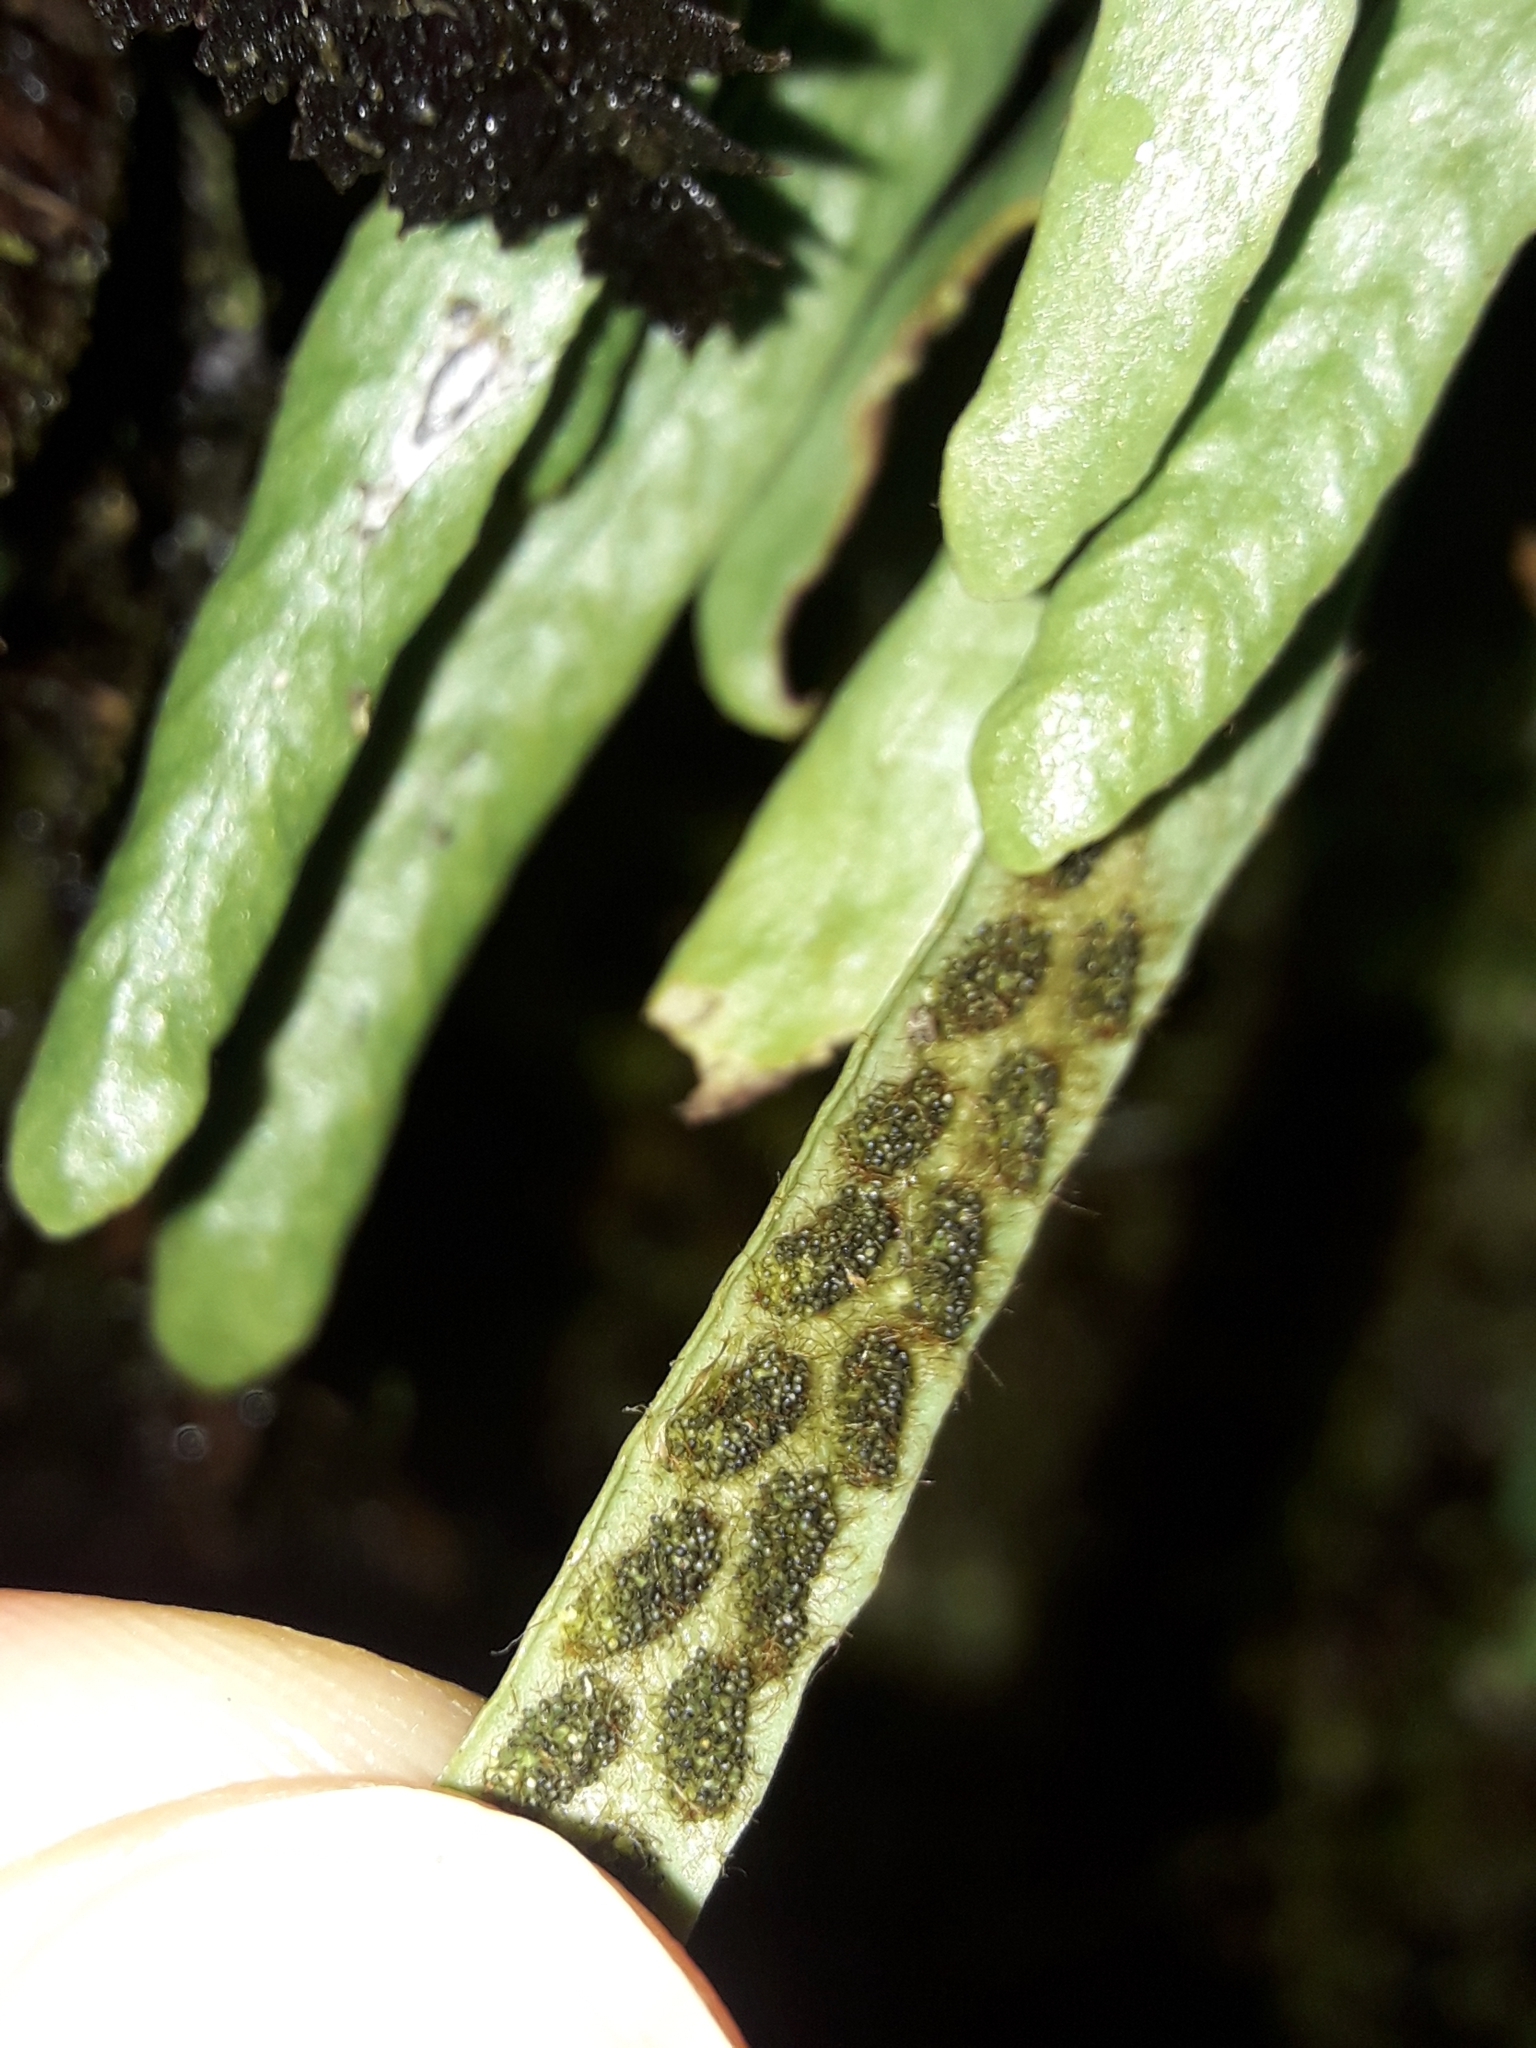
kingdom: Plantae
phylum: Tracheophyta
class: Polypodiopsida
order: Polypodiales
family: Polypodiaceae
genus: Notogrammitis
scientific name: Notogrammitis patagonica
